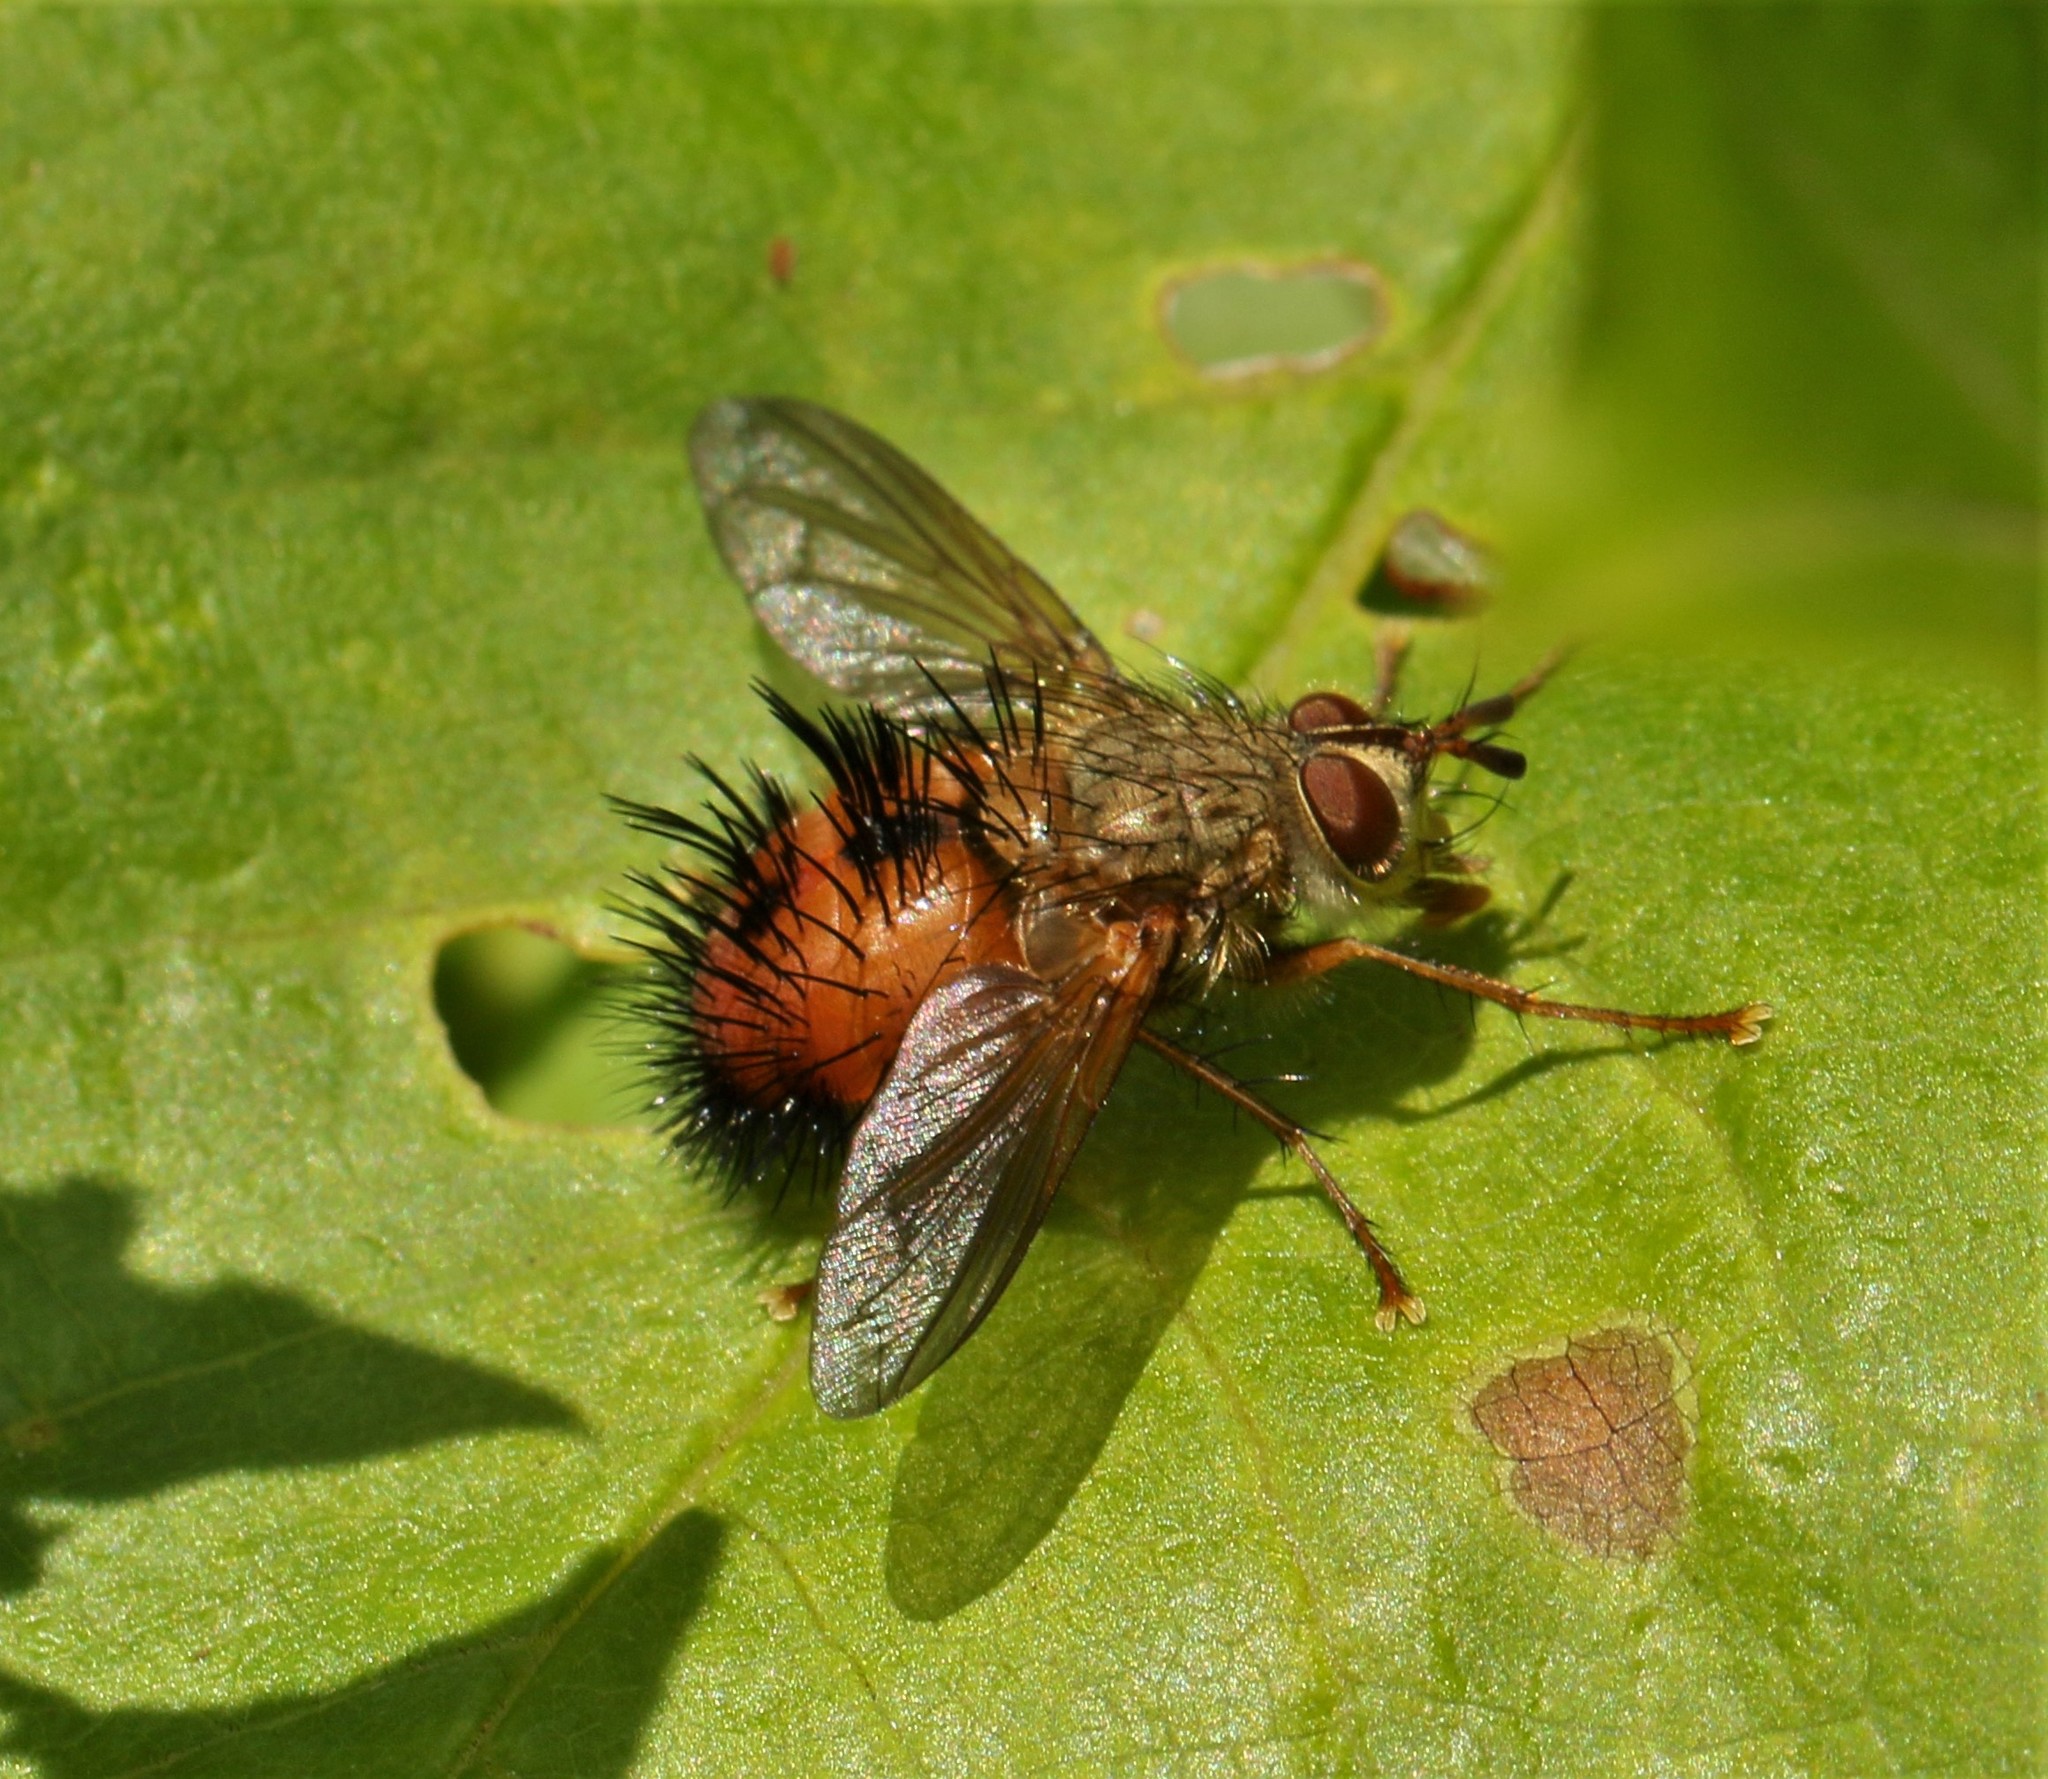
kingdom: Animalia
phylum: Arthropoda
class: Insecta
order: Diptera
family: Tachinidae
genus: Hystricia
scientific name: Hystricia abrupta
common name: Tomato bristle fly
